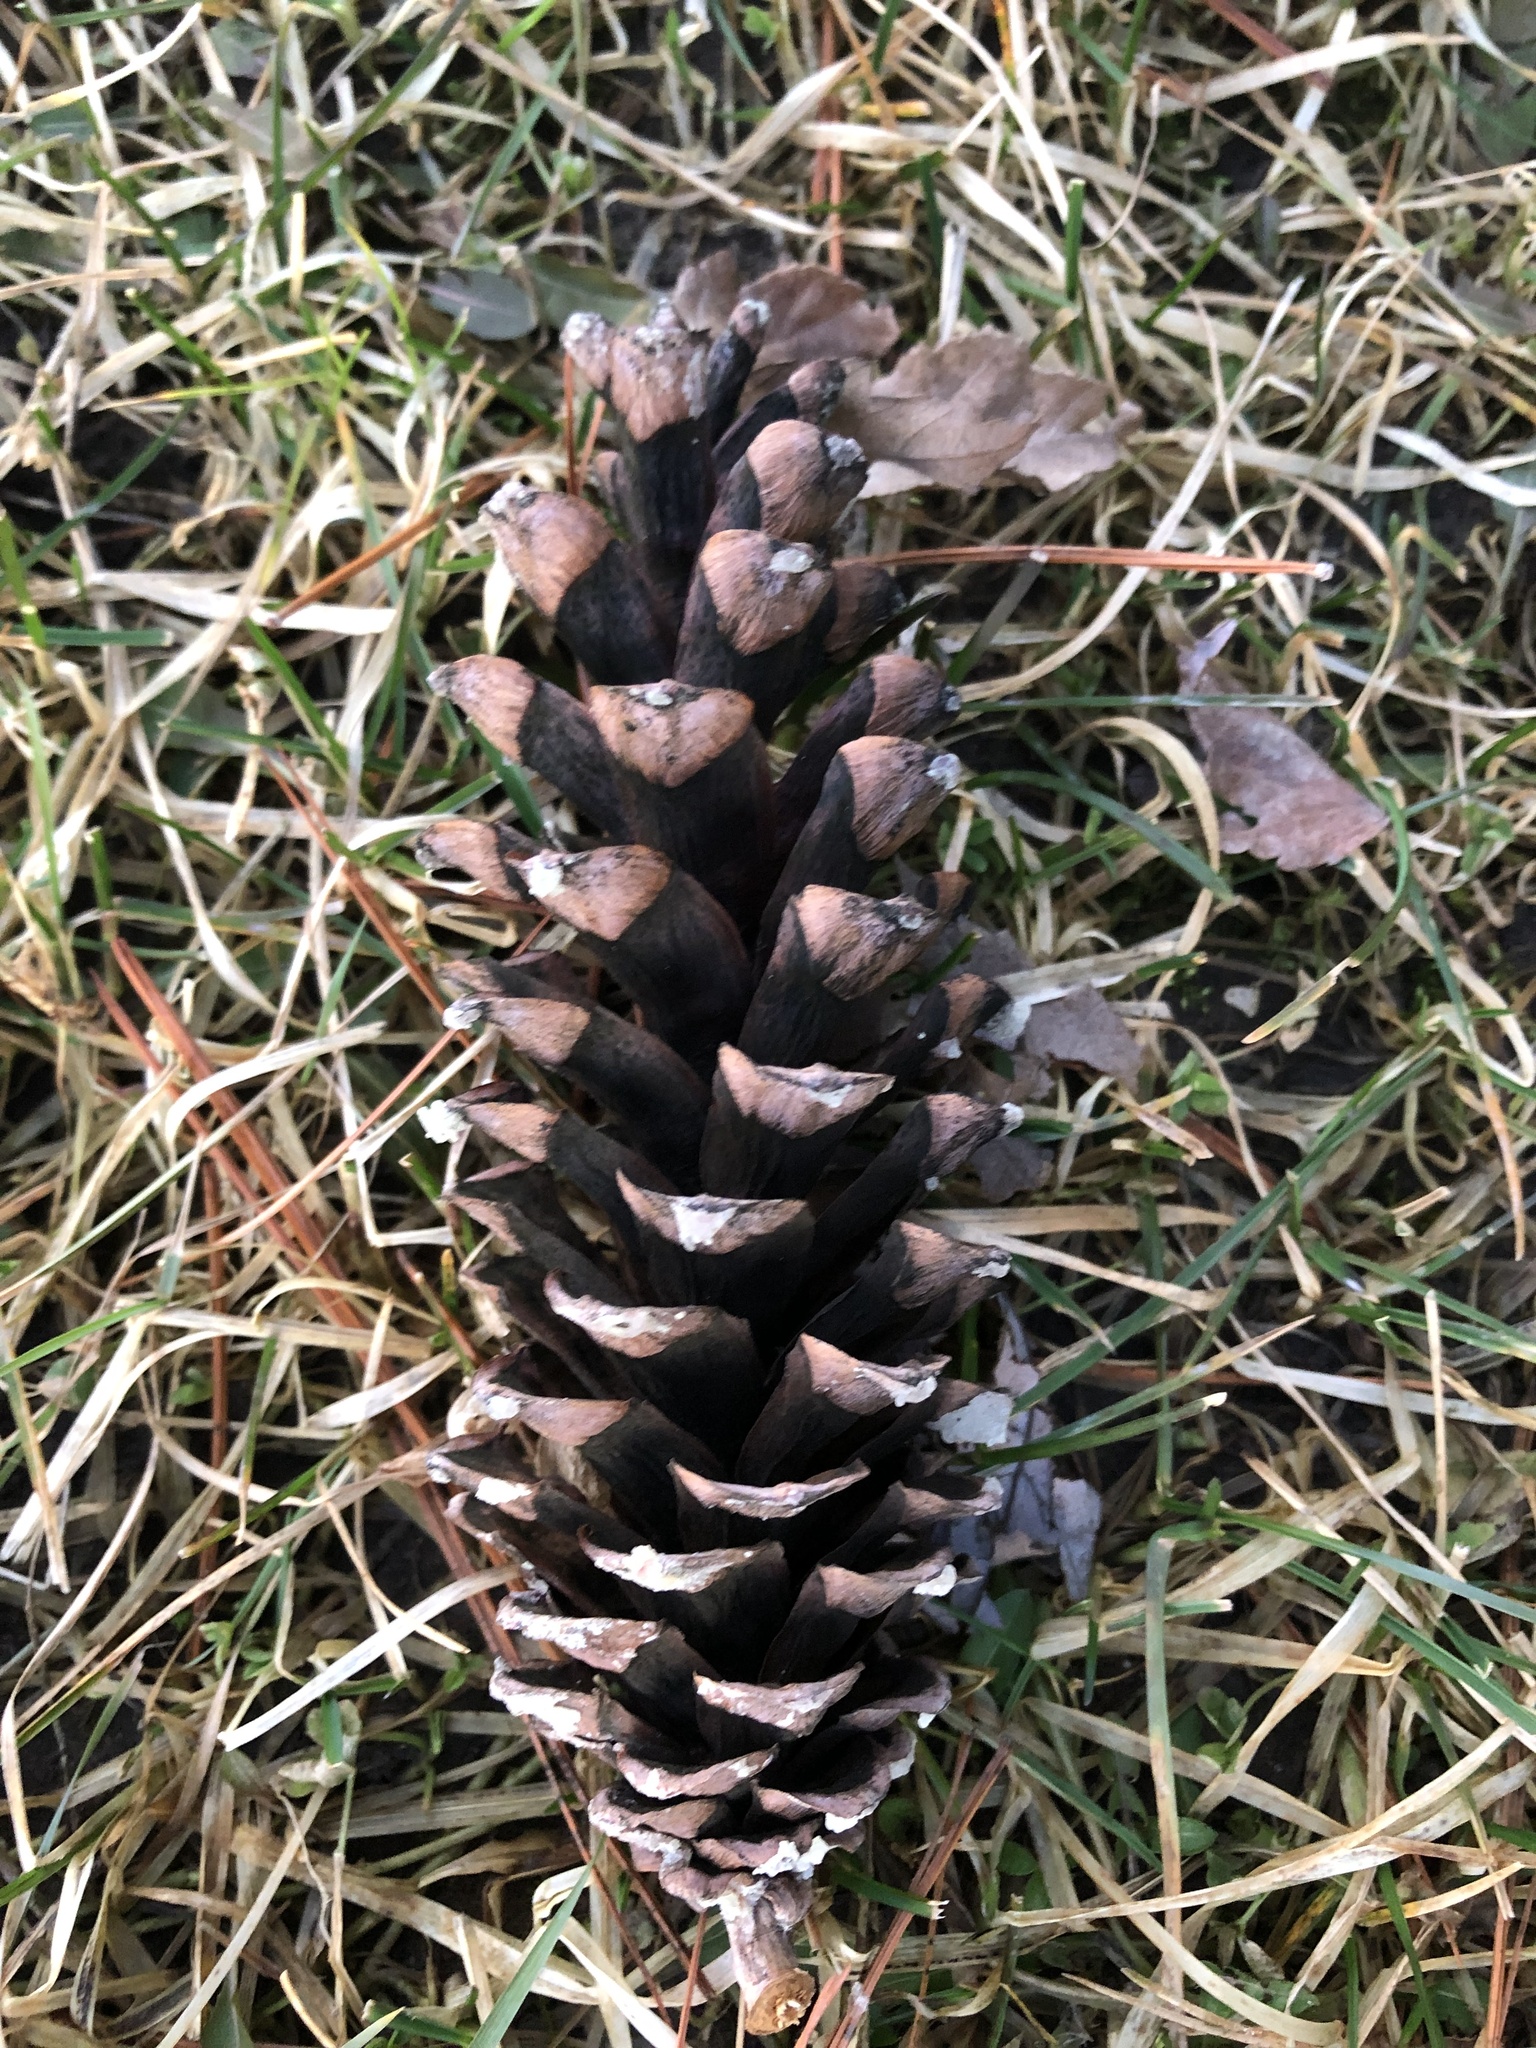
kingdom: Plantae
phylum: Tracheophyta
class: Pinopsida
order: Pinales
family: Pinaceae
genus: Pinus
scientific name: Pinus strobus
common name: Weymouth pine
